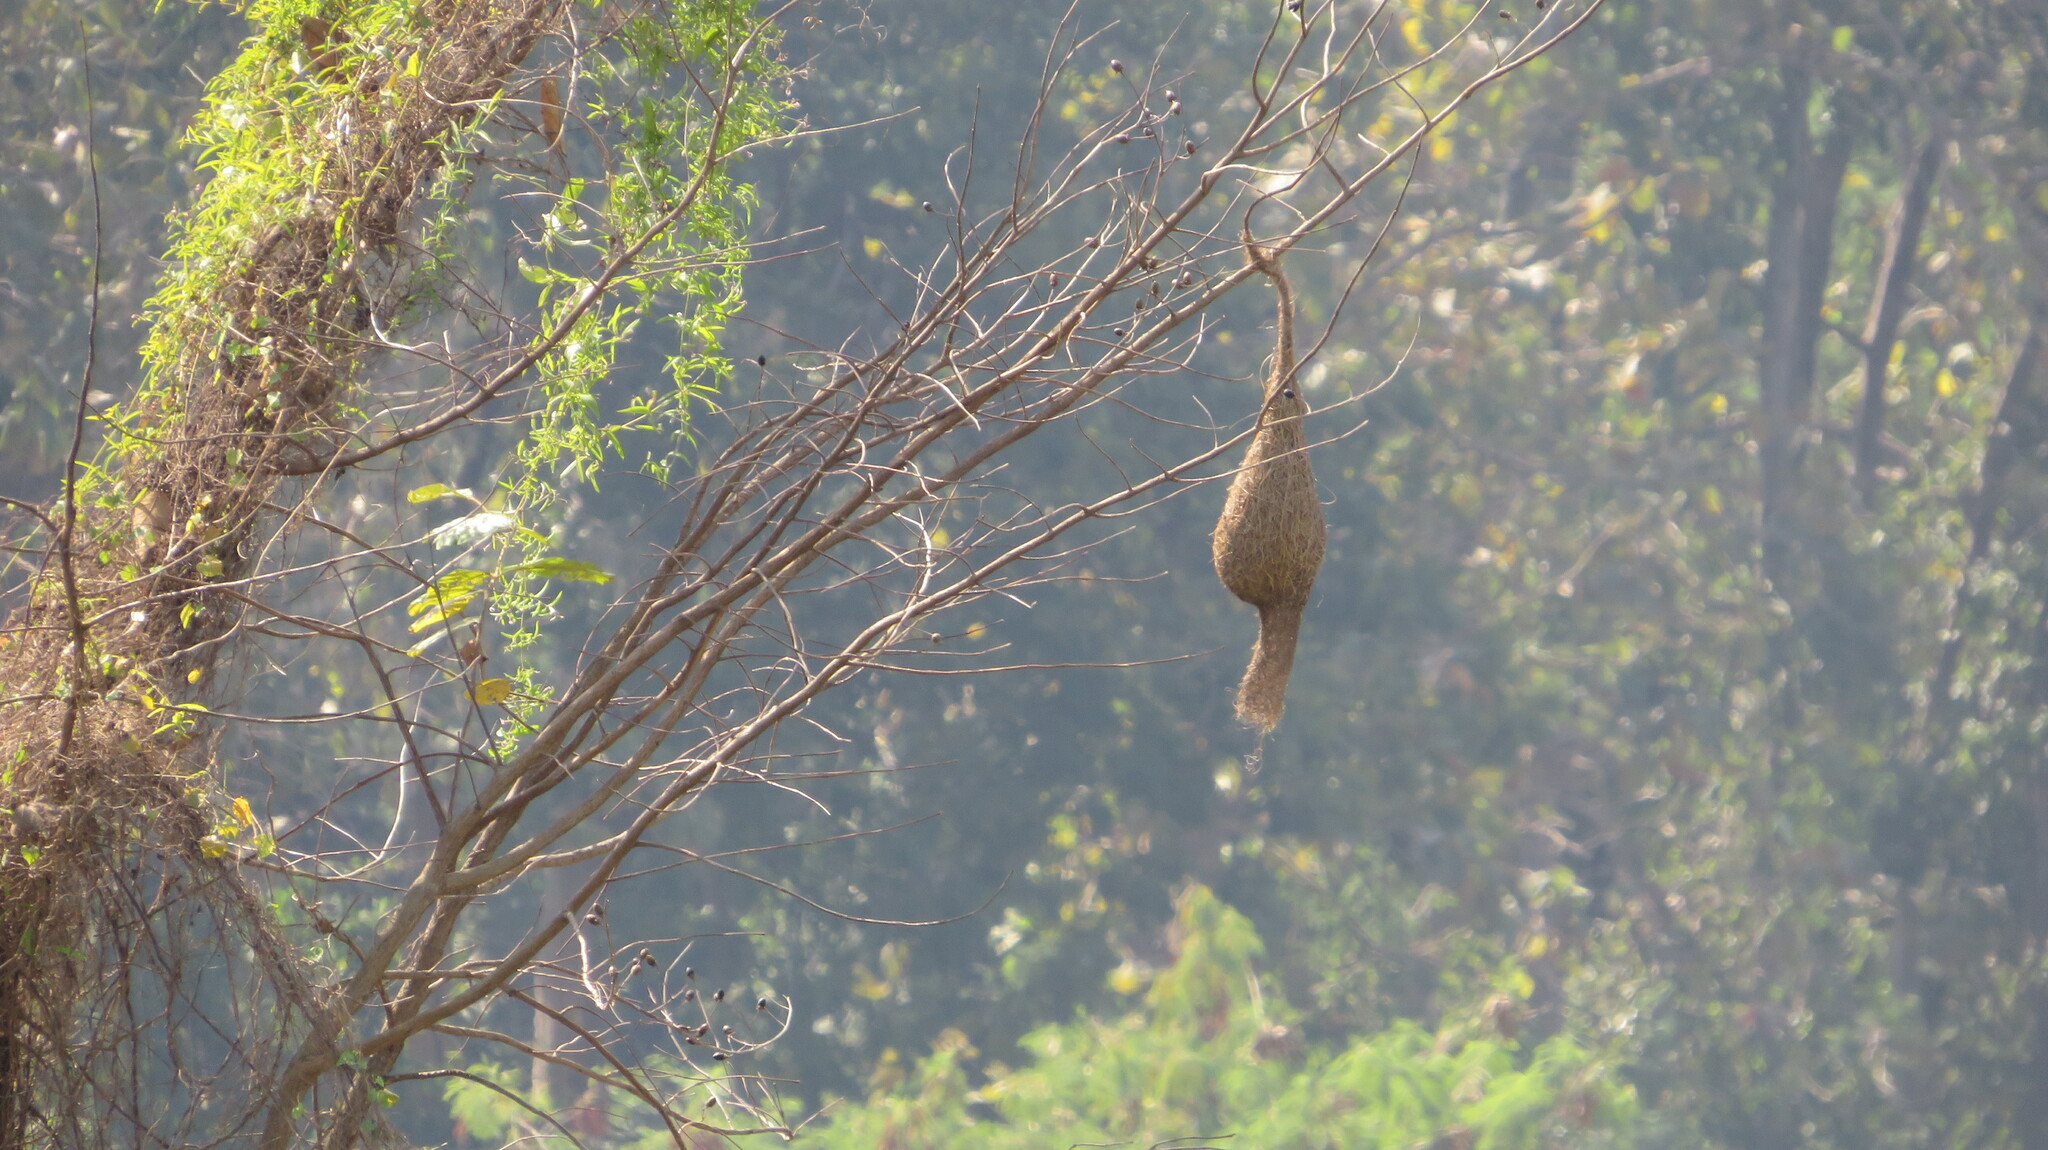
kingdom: Animalia
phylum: Chordata
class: Aves
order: Passeriformes
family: Ploceidae
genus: Ploceus
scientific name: Ploceus philippinus
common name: Baya weaver
